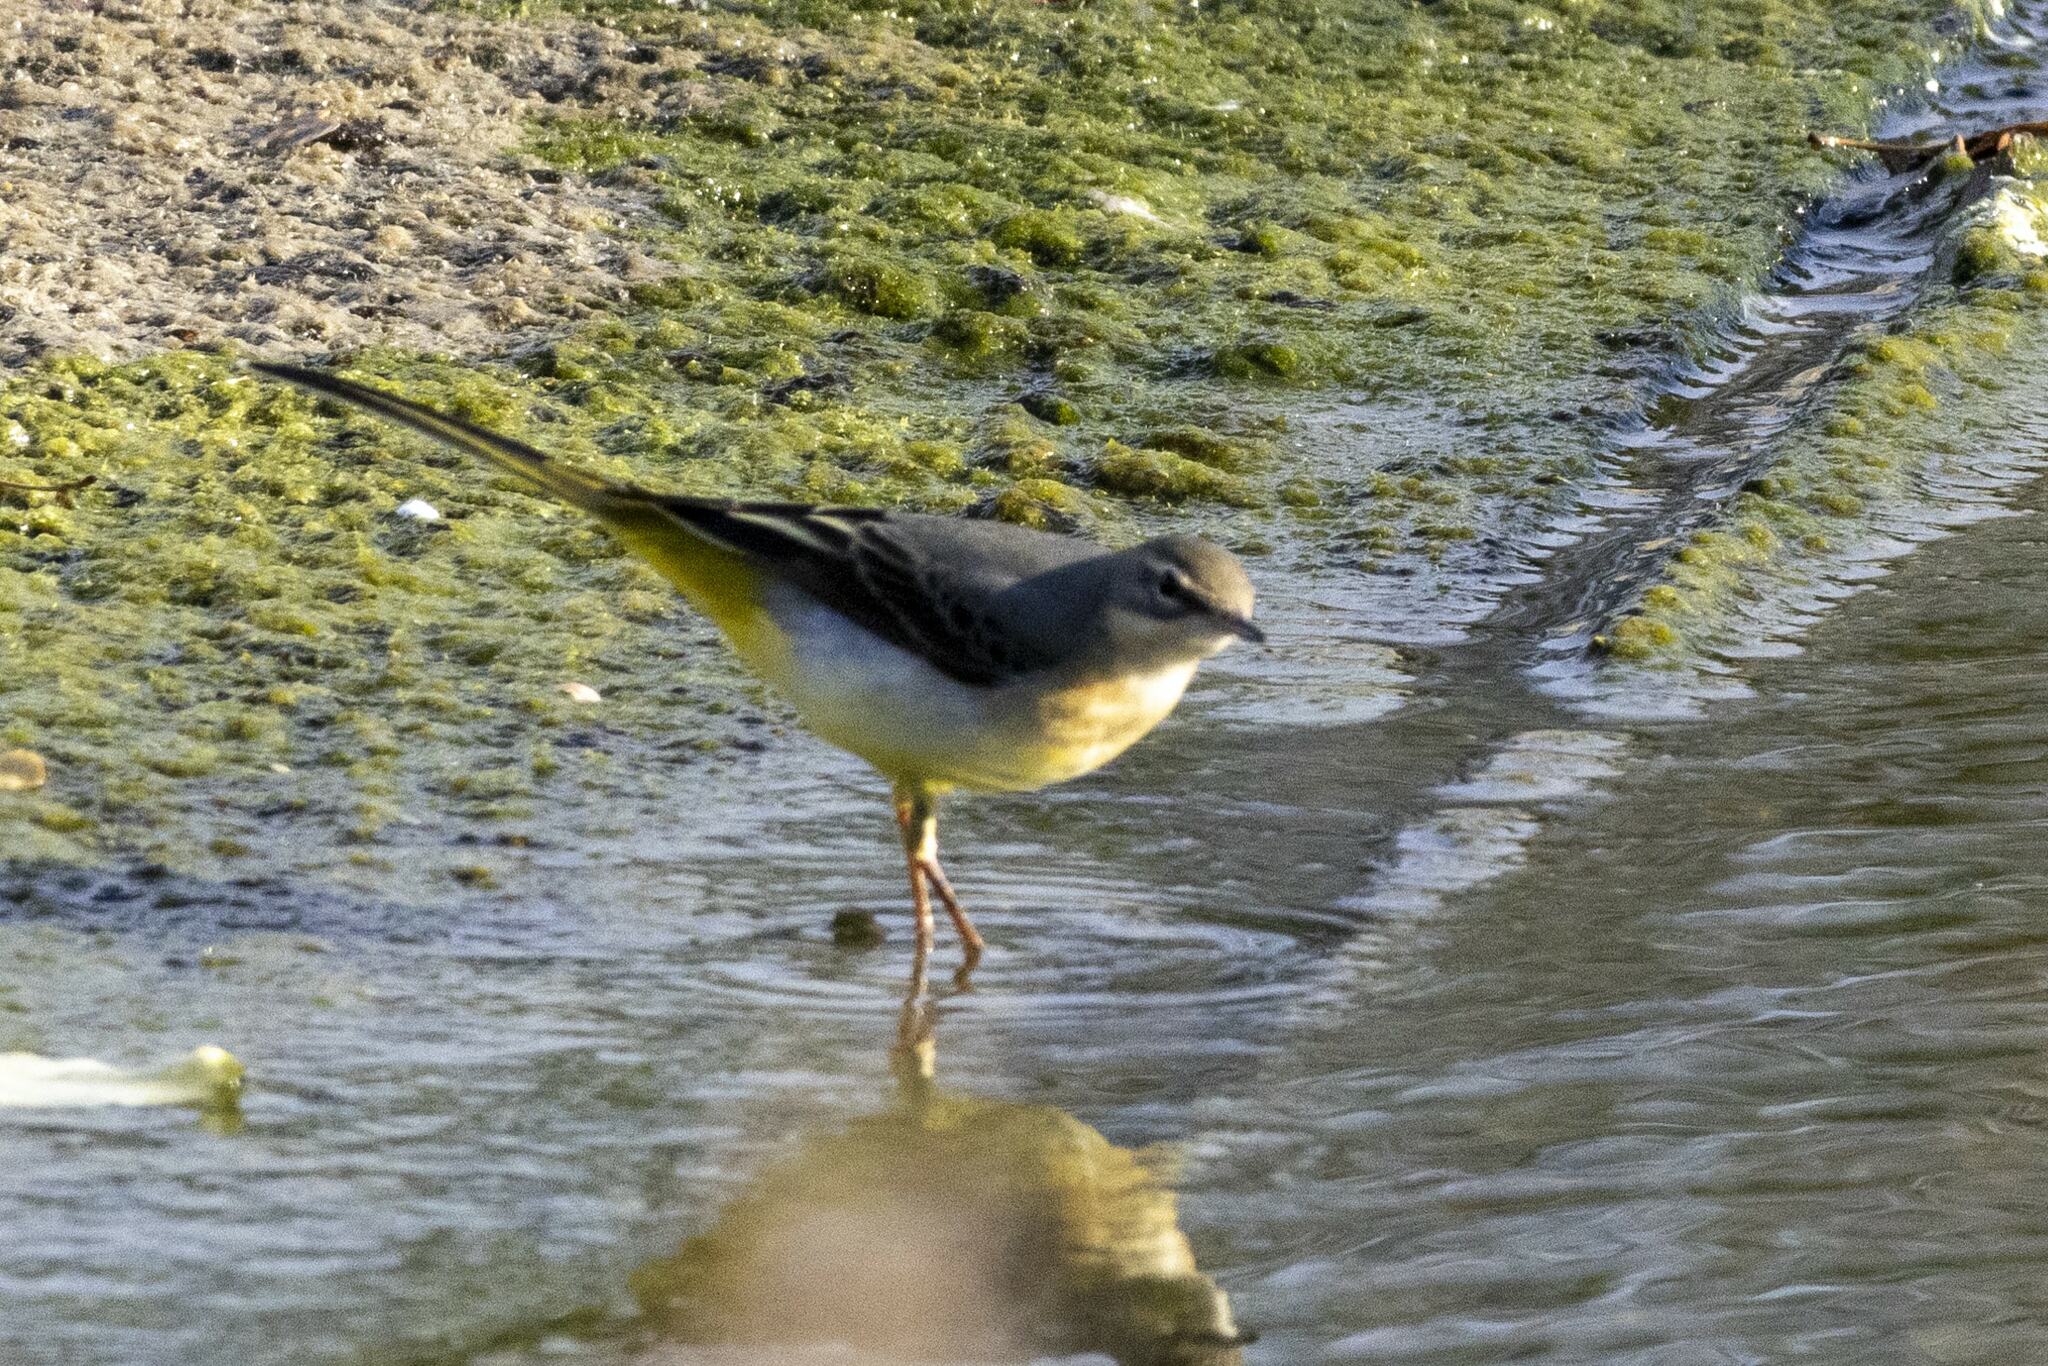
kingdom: Animalia
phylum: Chordata
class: Aves
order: Passeriformes
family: Motacillidae
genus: Motacilla
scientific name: Motacilla cinerea
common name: Grey wagtail
